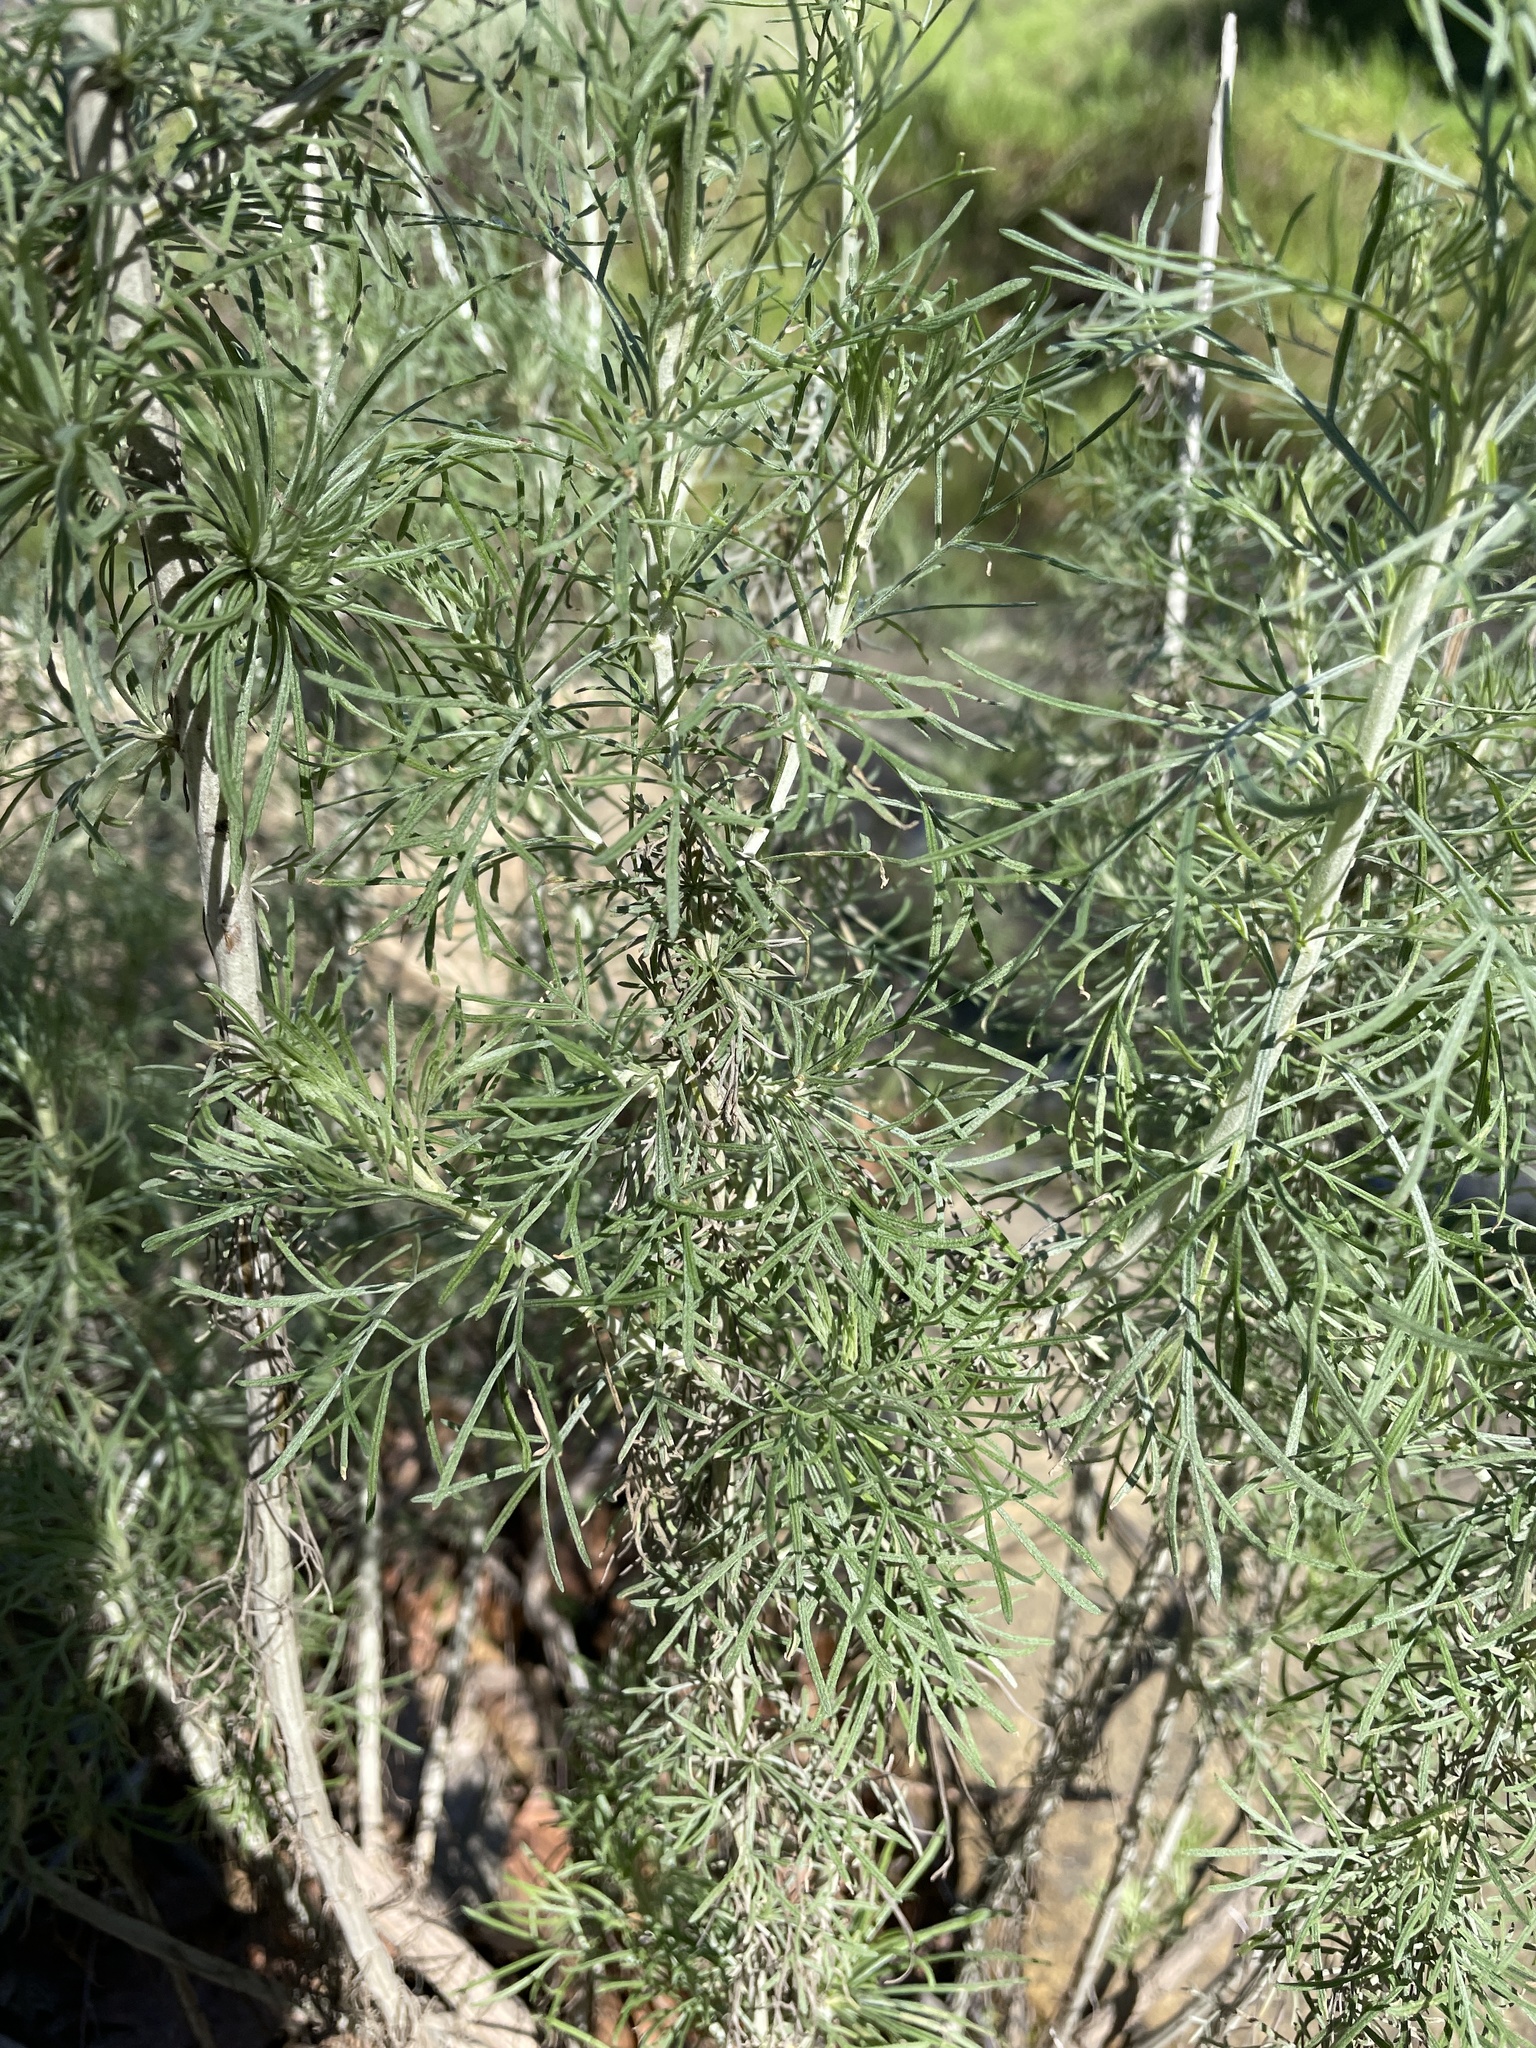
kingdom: Plantae
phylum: Tracheophyta
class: Magnoliopsida
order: Asterales
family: Asteraceae
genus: Artemisia
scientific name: Artemisia californica
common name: California sagebrush
